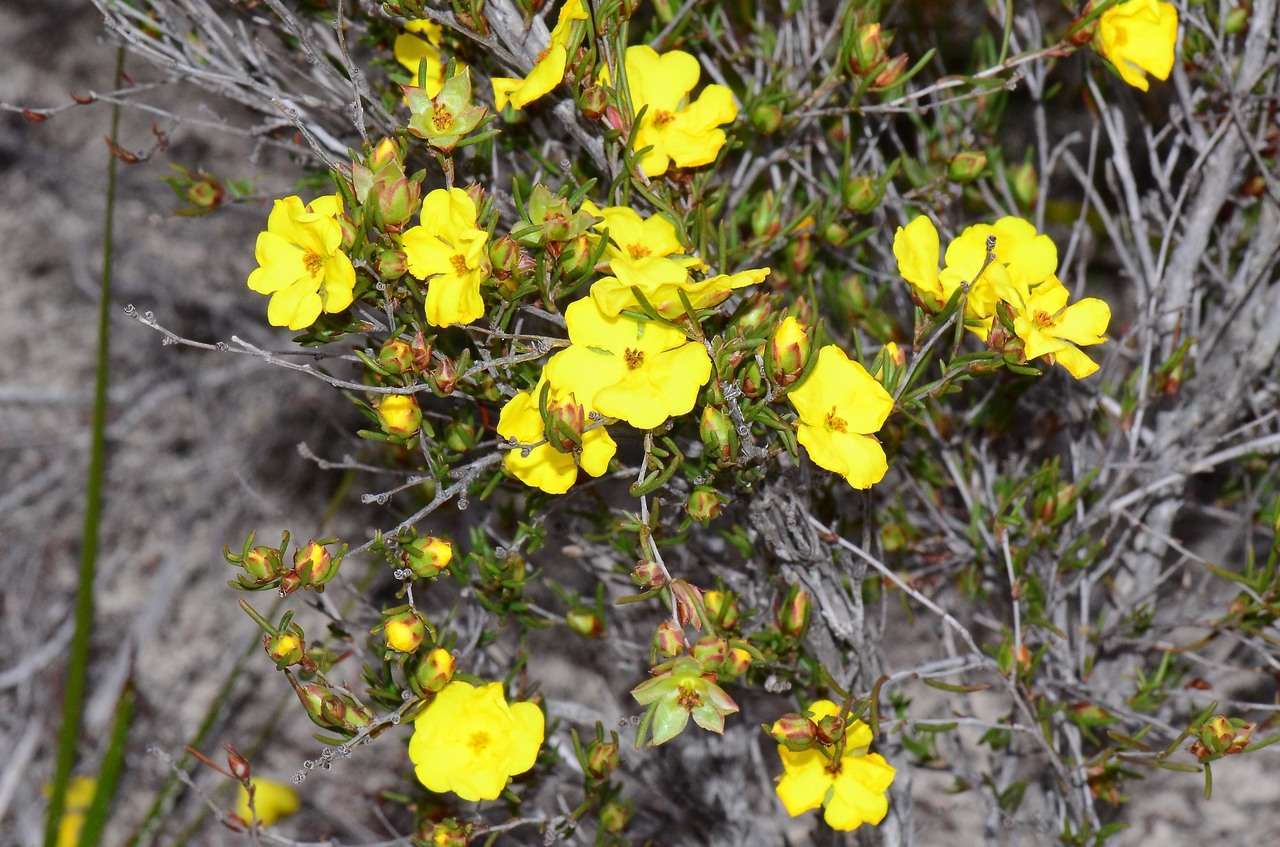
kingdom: Plantae
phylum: Tracheophyta
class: Magnoliopsida
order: Dilleniales
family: Dilleniaceae
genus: Hibbertia
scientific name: Hibbertia virgata
